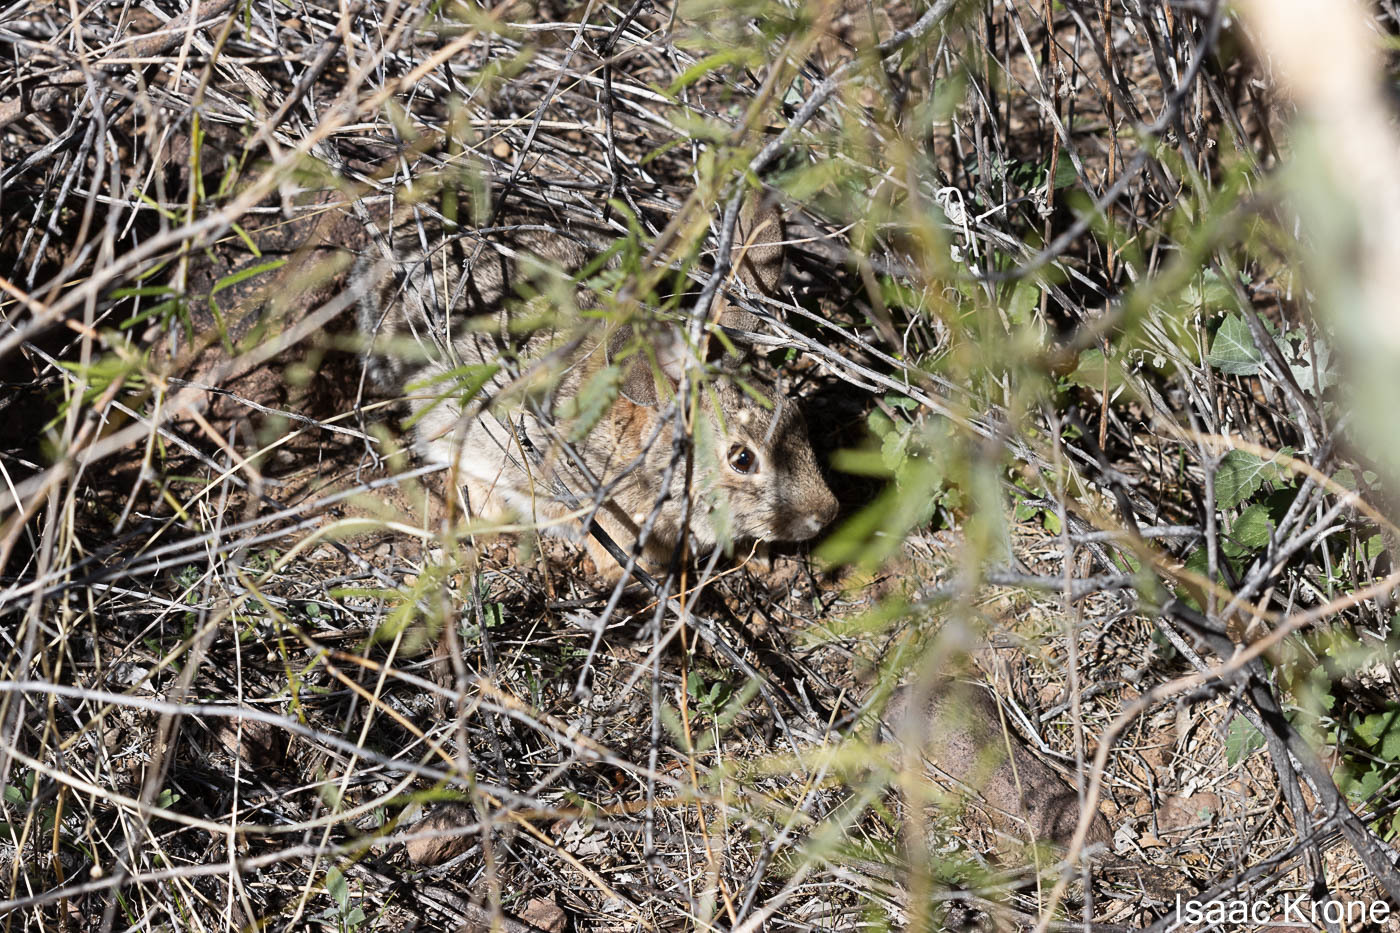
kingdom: Animalia
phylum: Chordata
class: Mammalia
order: Lagomorpha
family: Leporidae
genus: Sylvilagus
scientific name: Sylvilagus audubonii
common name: Desert cottontail
